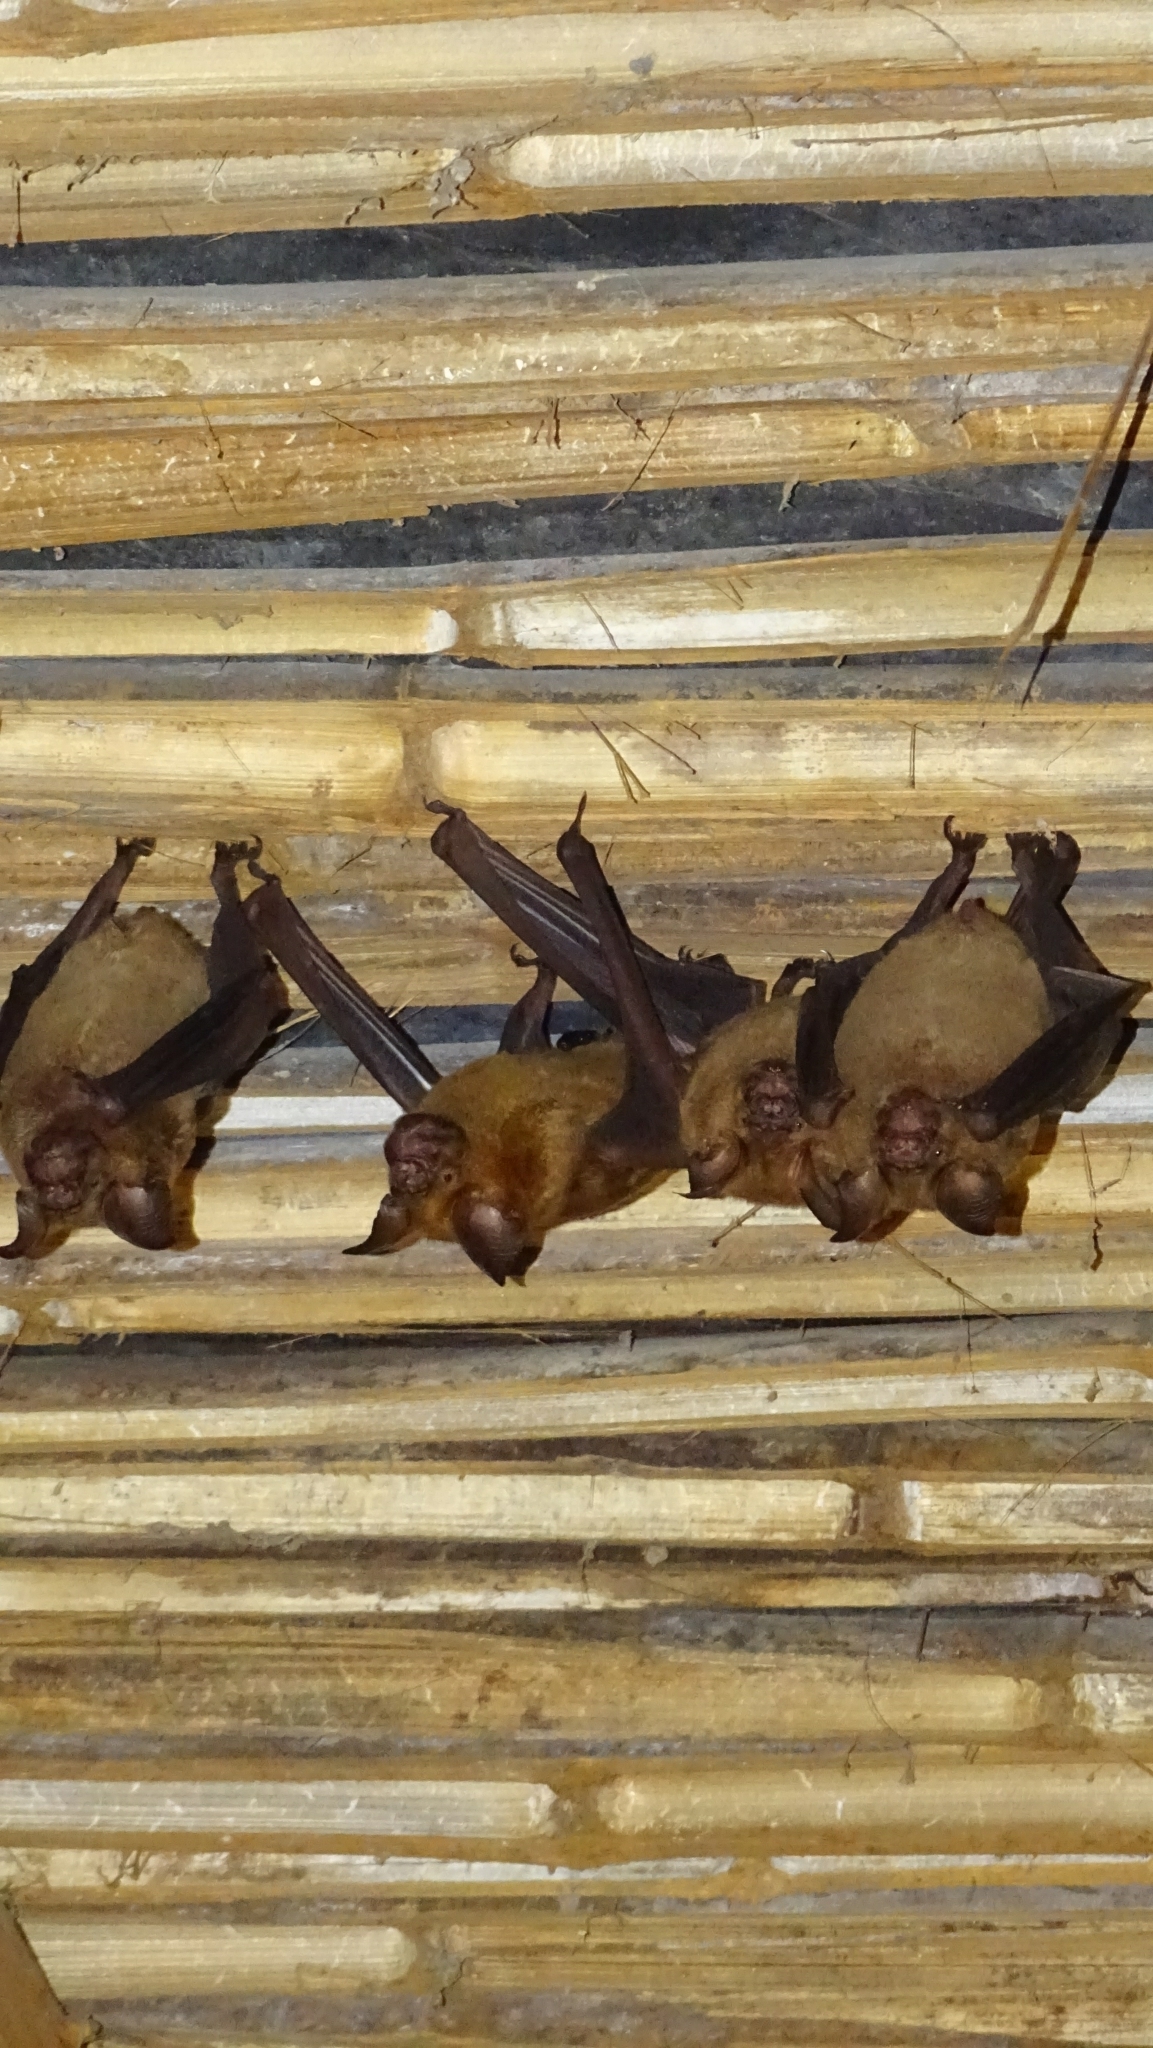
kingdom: Animalia
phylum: Chordata
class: Mammalia
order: Chiroptera
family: Hipposideridae
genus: Hipposideros
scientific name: Hipposideros lankadiva
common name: Indian leaf-nosed bat
